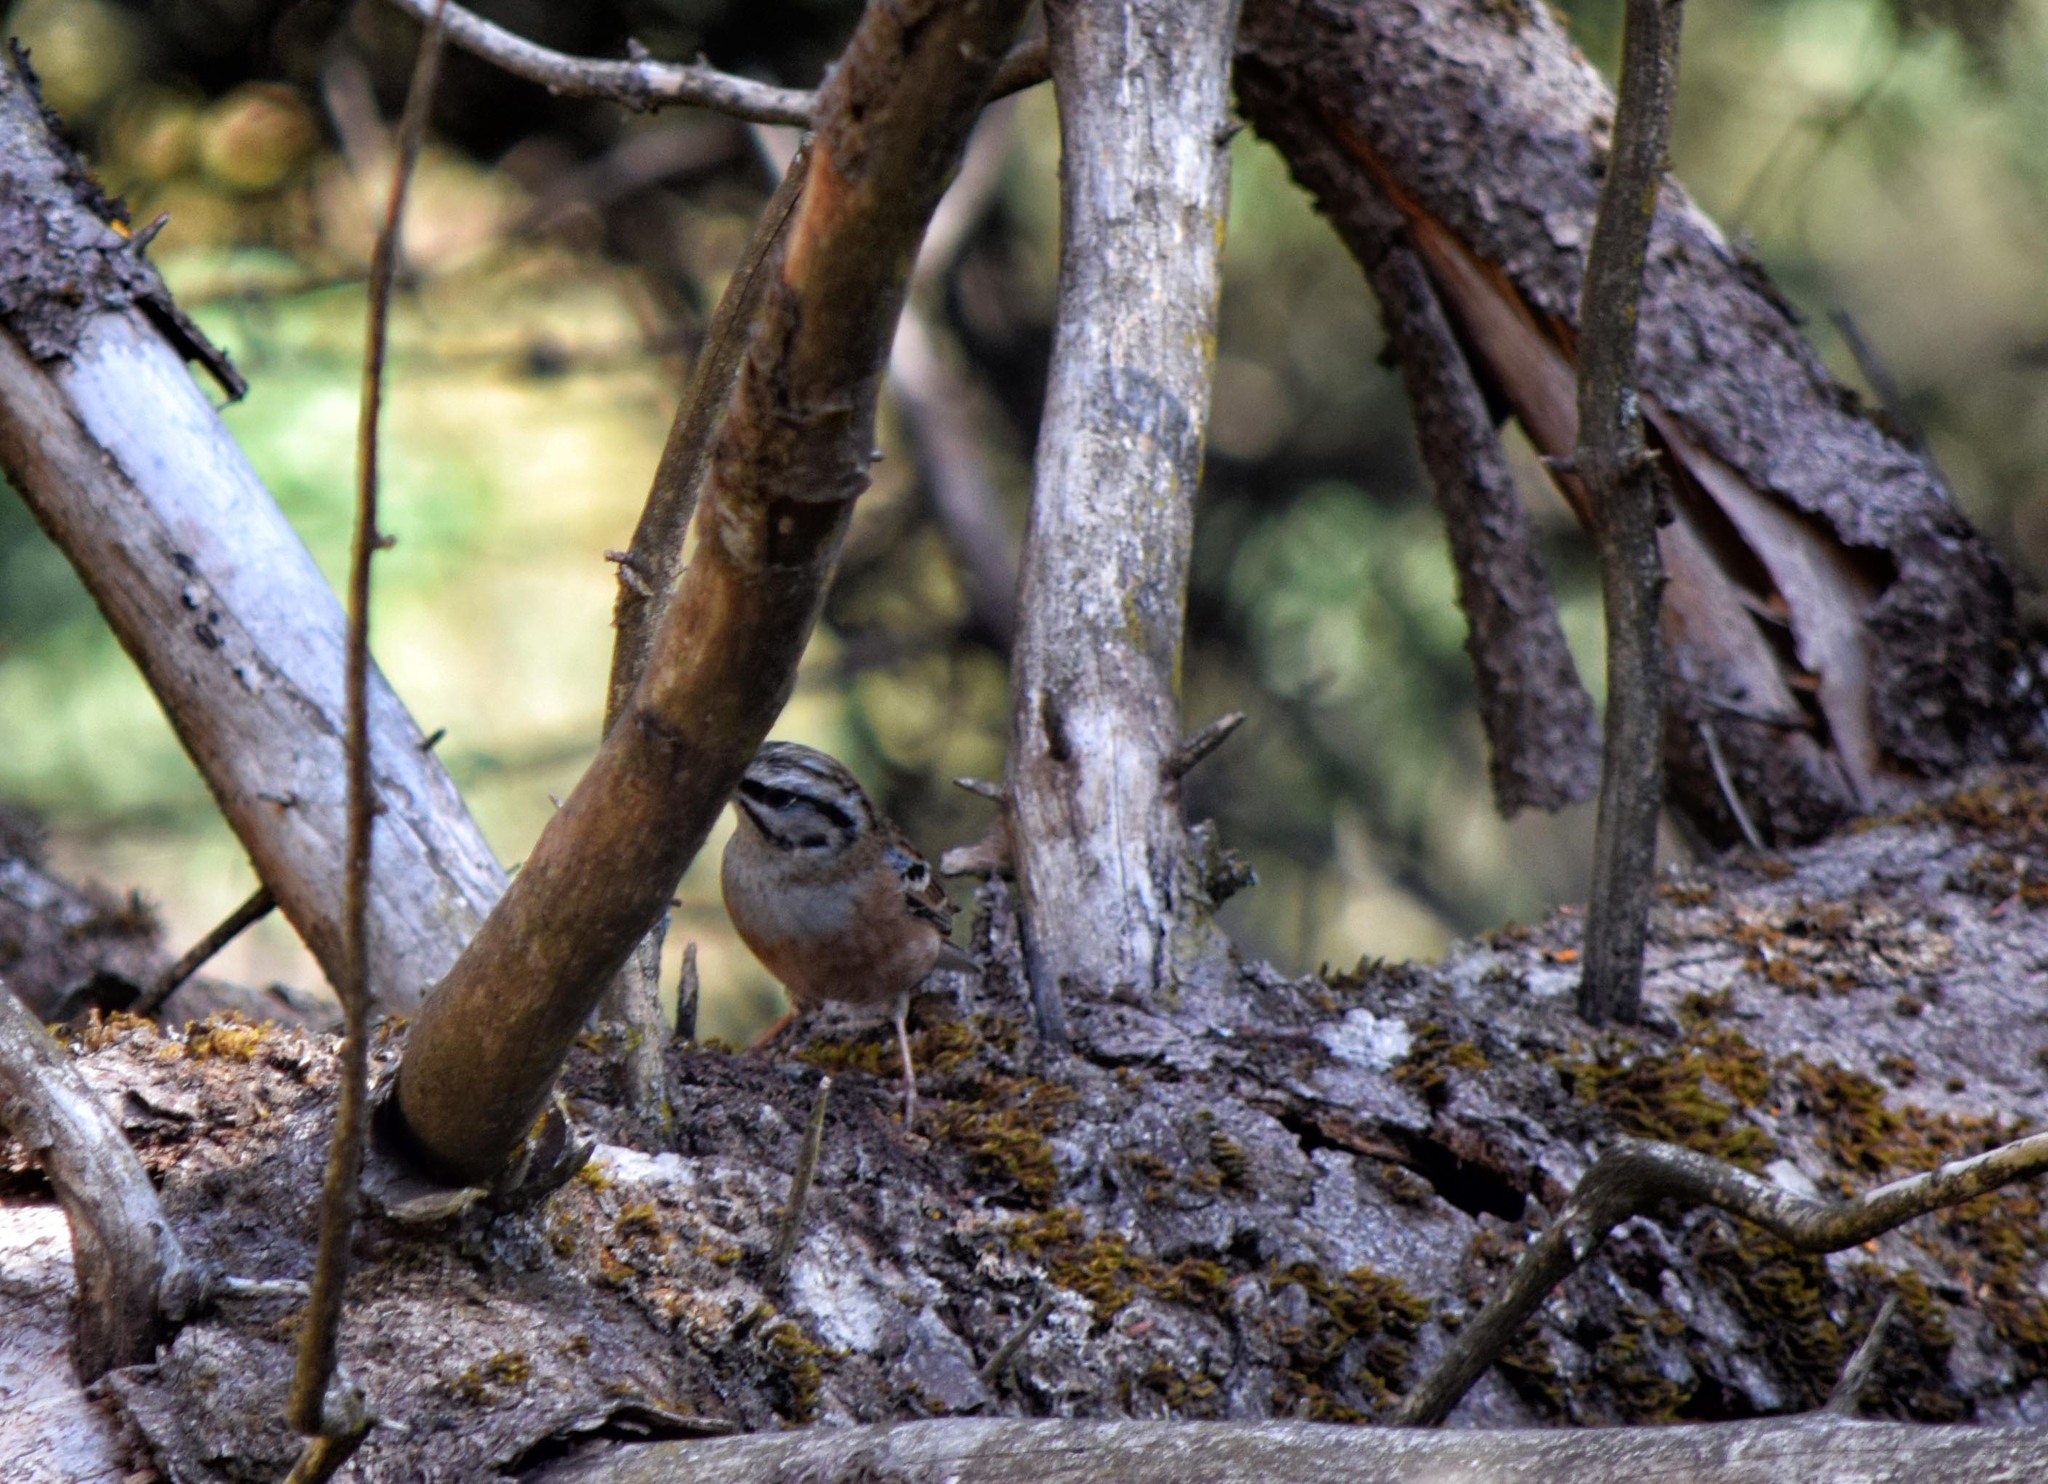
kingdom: Animalia
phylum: Chordata
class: Aves
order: Passeriformes
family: Emberizidae
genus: Emberiza
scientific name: Emberiza cia
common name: Rock bunting
